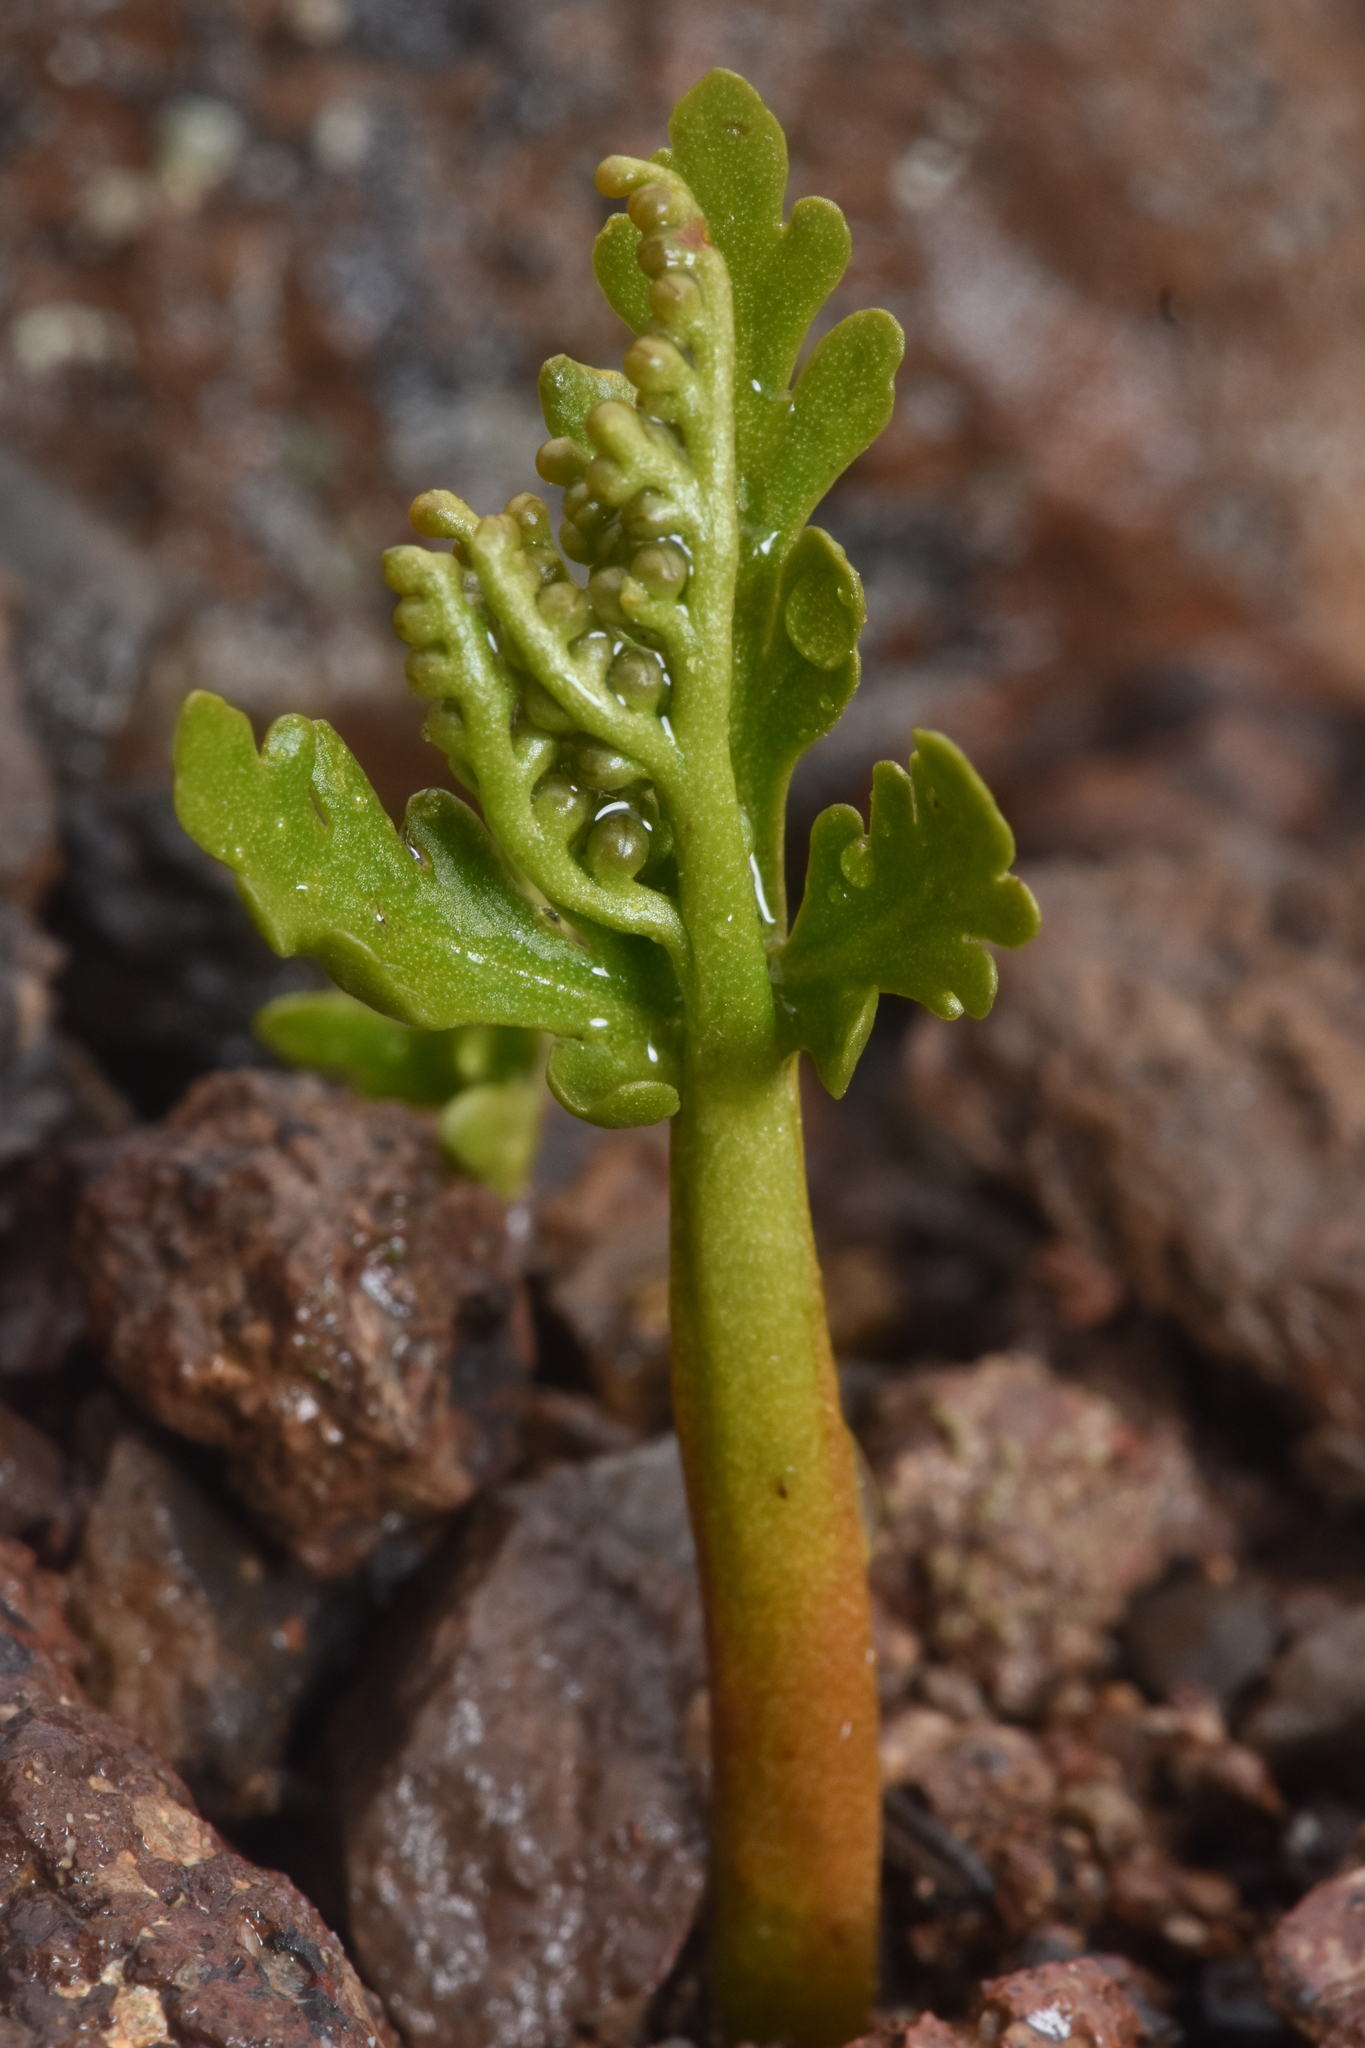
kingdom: Plantae
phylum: Tracheophyta
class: Polypodiopsida
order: Ophioglossales
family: Ophioglossaceae
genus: Botrychium
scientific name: Botrychium lanceolatum
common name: Lance-leaved moonwort
